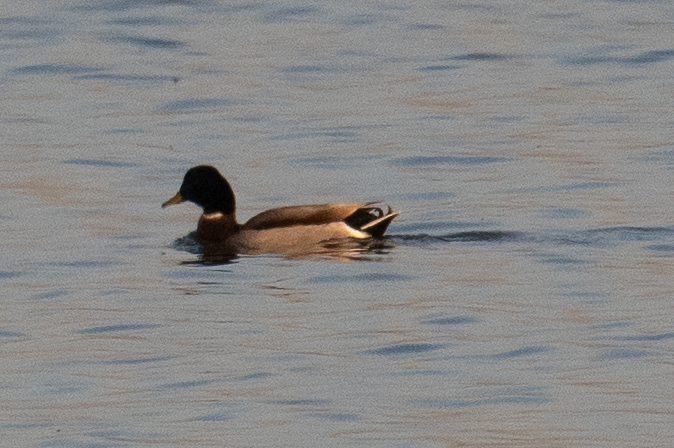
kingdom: Animalia
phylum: Chordata
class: Aves
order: Anseriformes
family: Anatidae
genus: Anas
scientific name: Anas platyrhynchos
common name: Mallard
